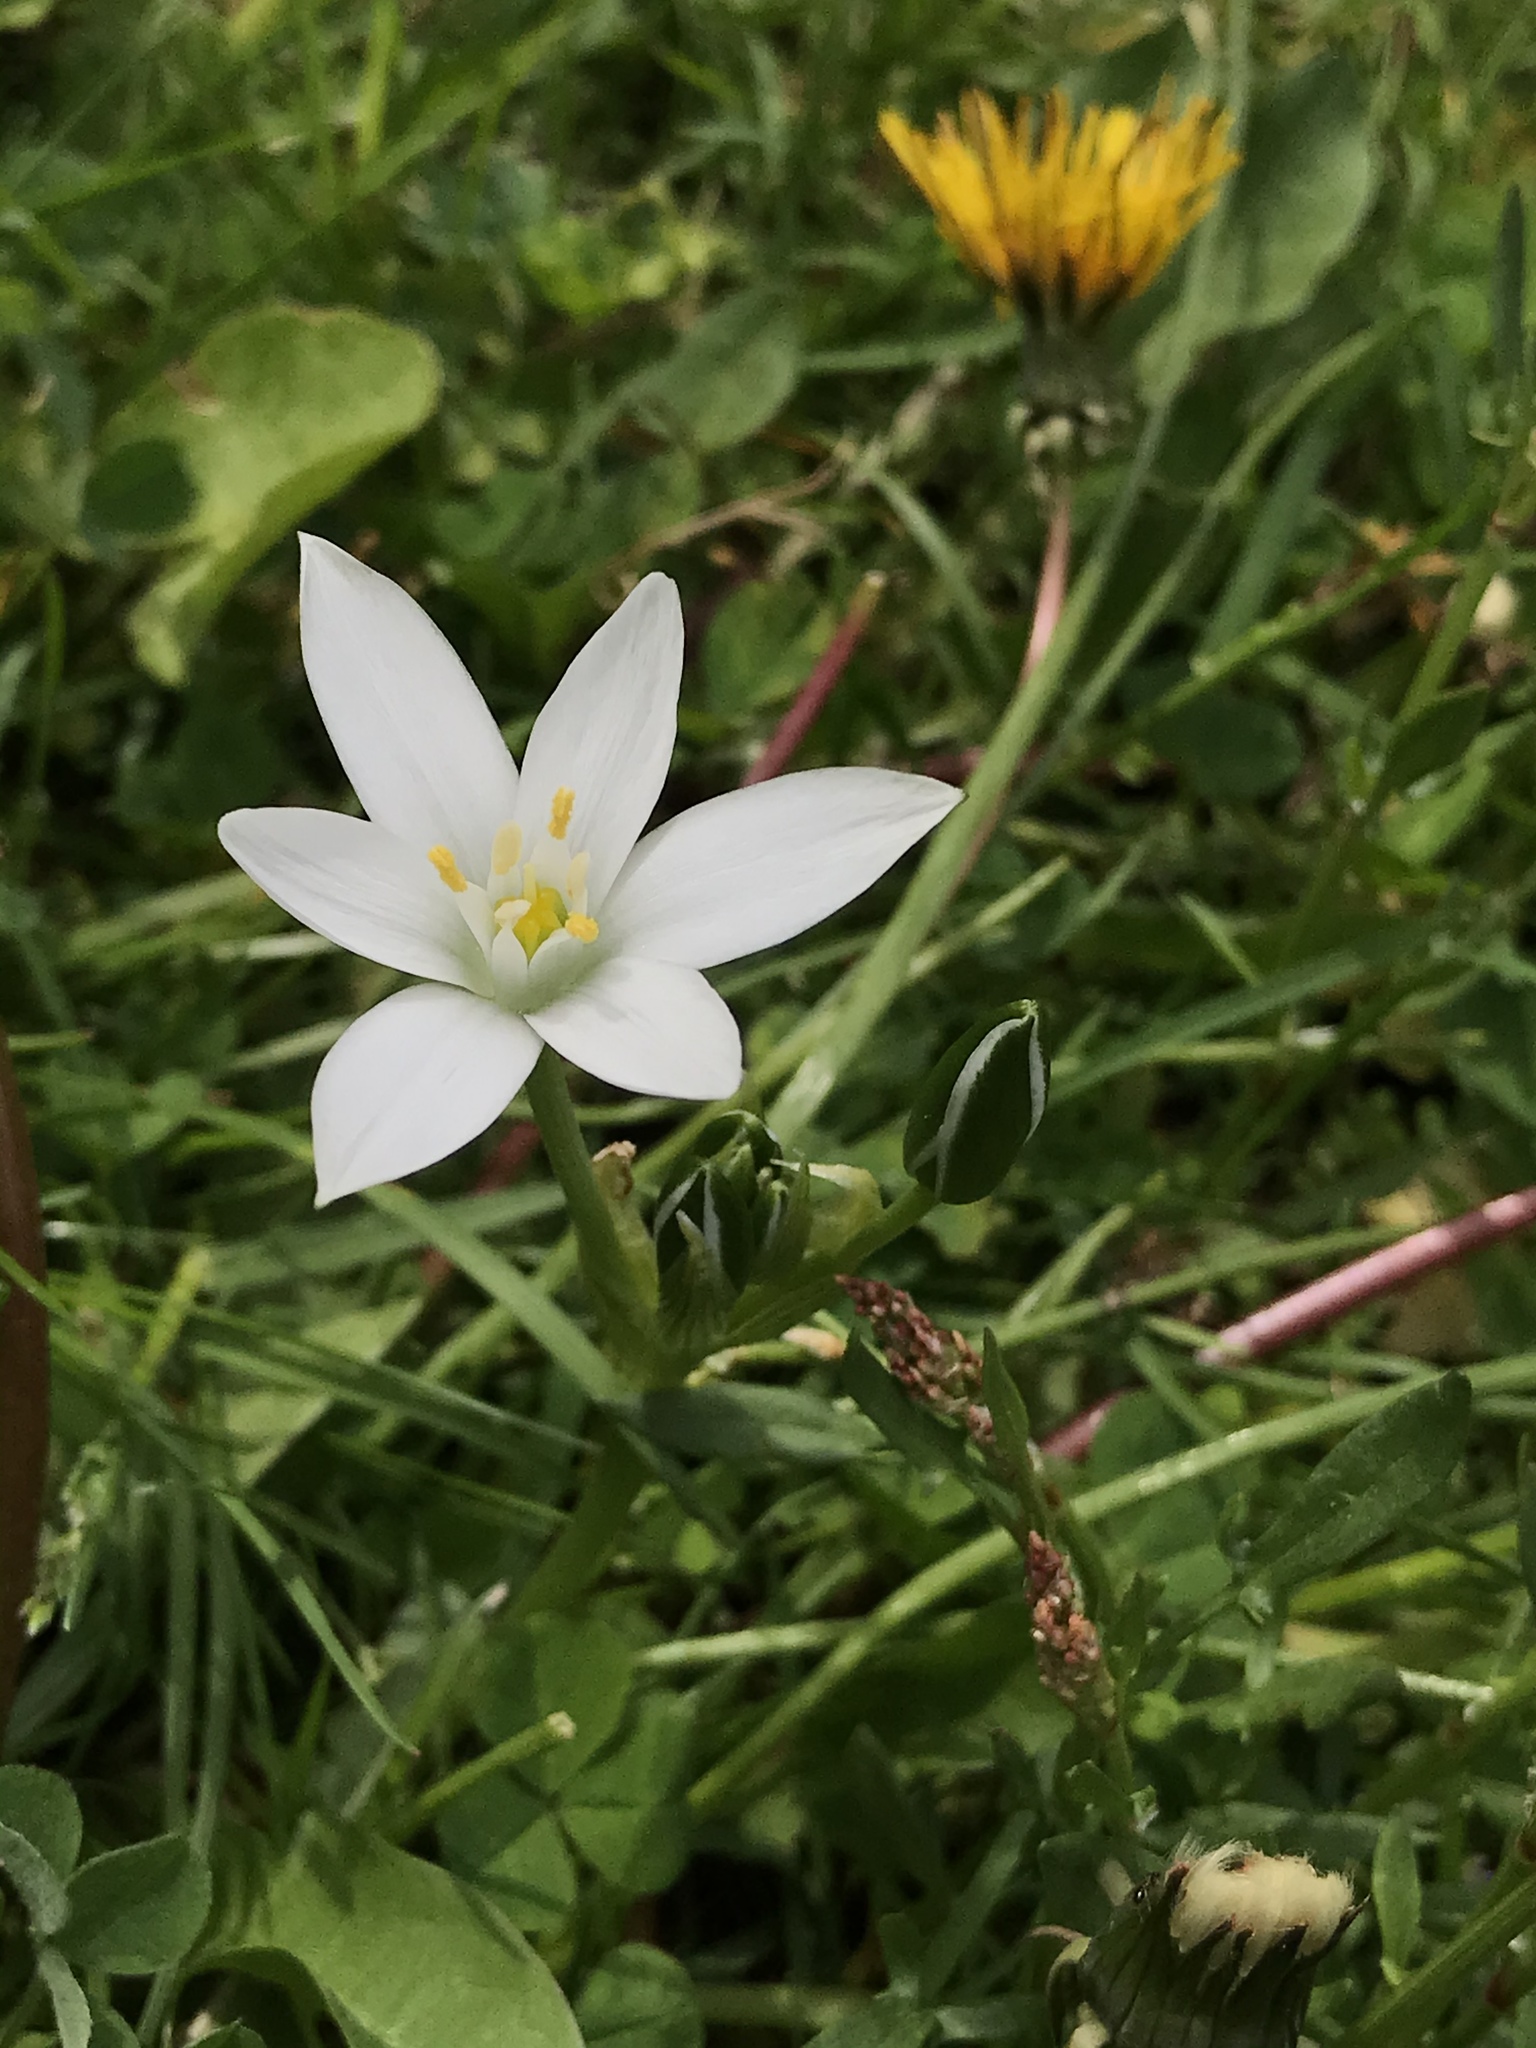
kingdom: Plantae
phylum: Tracheophyta
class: Liliopsida
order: Asparagales
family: Asparagaceae
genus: Ornithogalum
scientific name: Ornithogalum umbellatum
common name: Garden star-of-bethlehem
